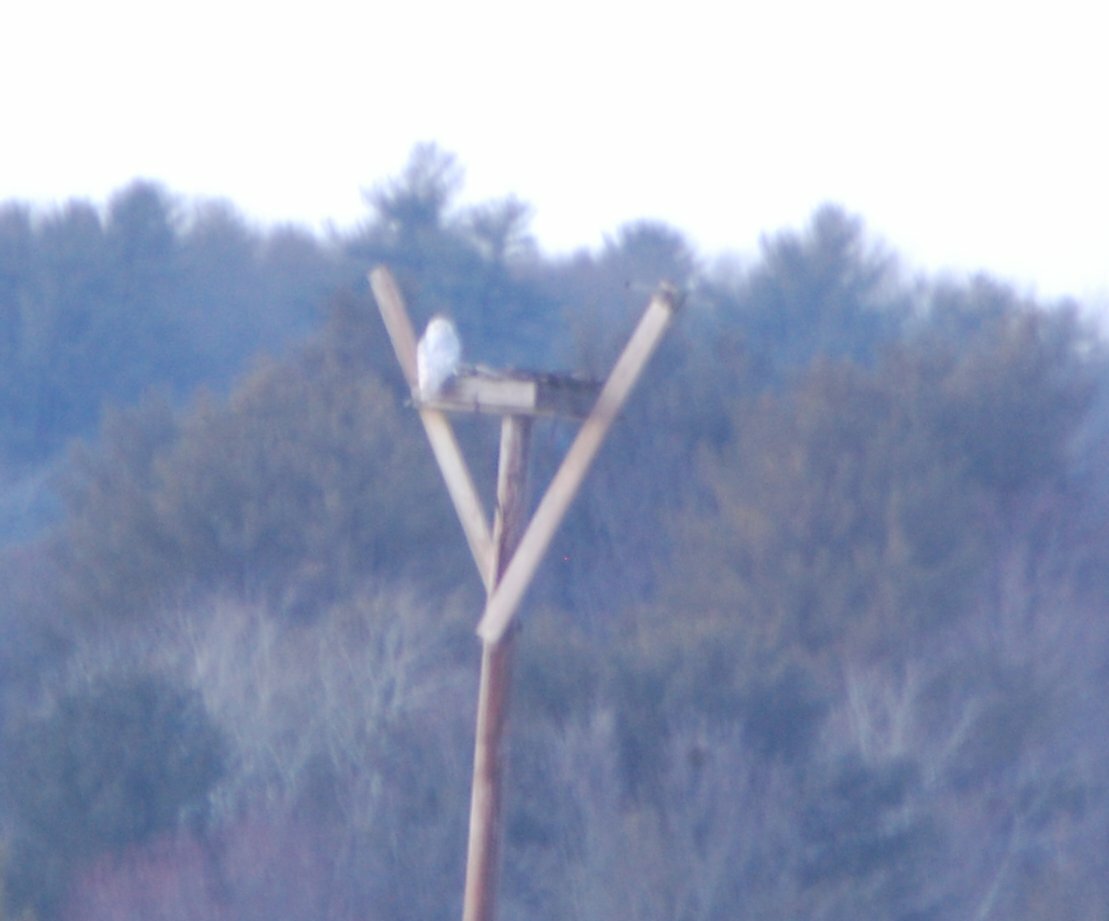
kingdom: Animalia
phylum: Chordata
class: Aves
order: Strigiformes
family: Strigidae
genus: Bubo
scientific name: Bubo scandiacus
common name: Snowy owl
